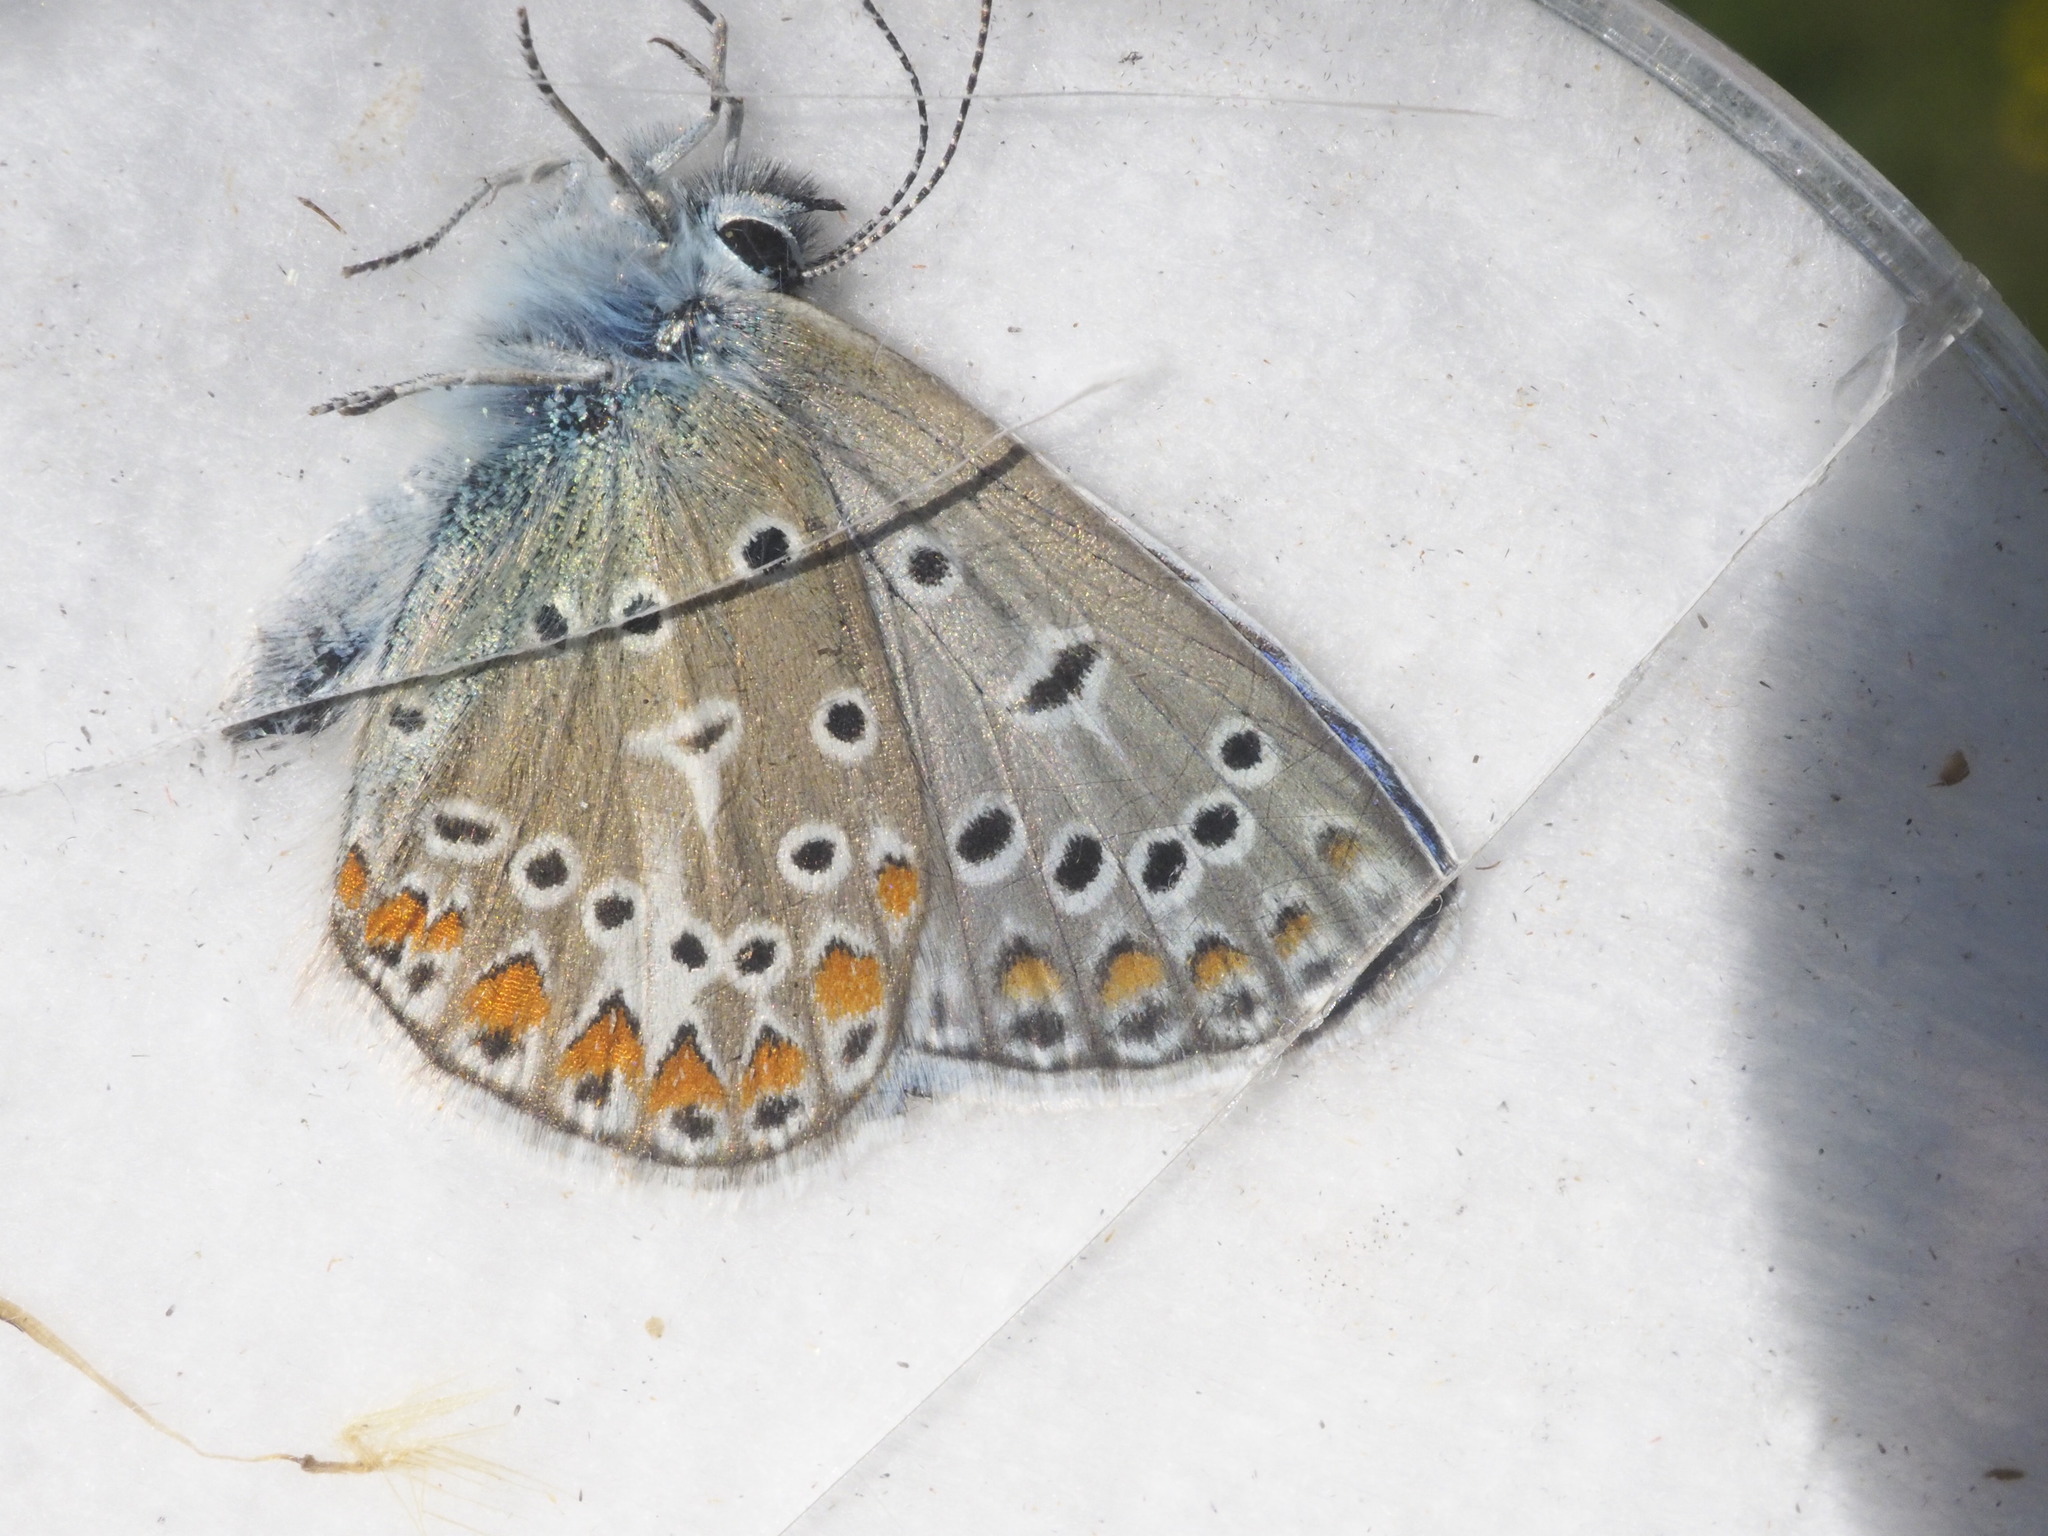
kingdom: Animalia
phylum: Arthropoda
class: Insecta
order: Lepidoptera
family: Lycaenidae
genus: Polyommatus
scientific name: Polyommatus icarus
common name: Common blue
